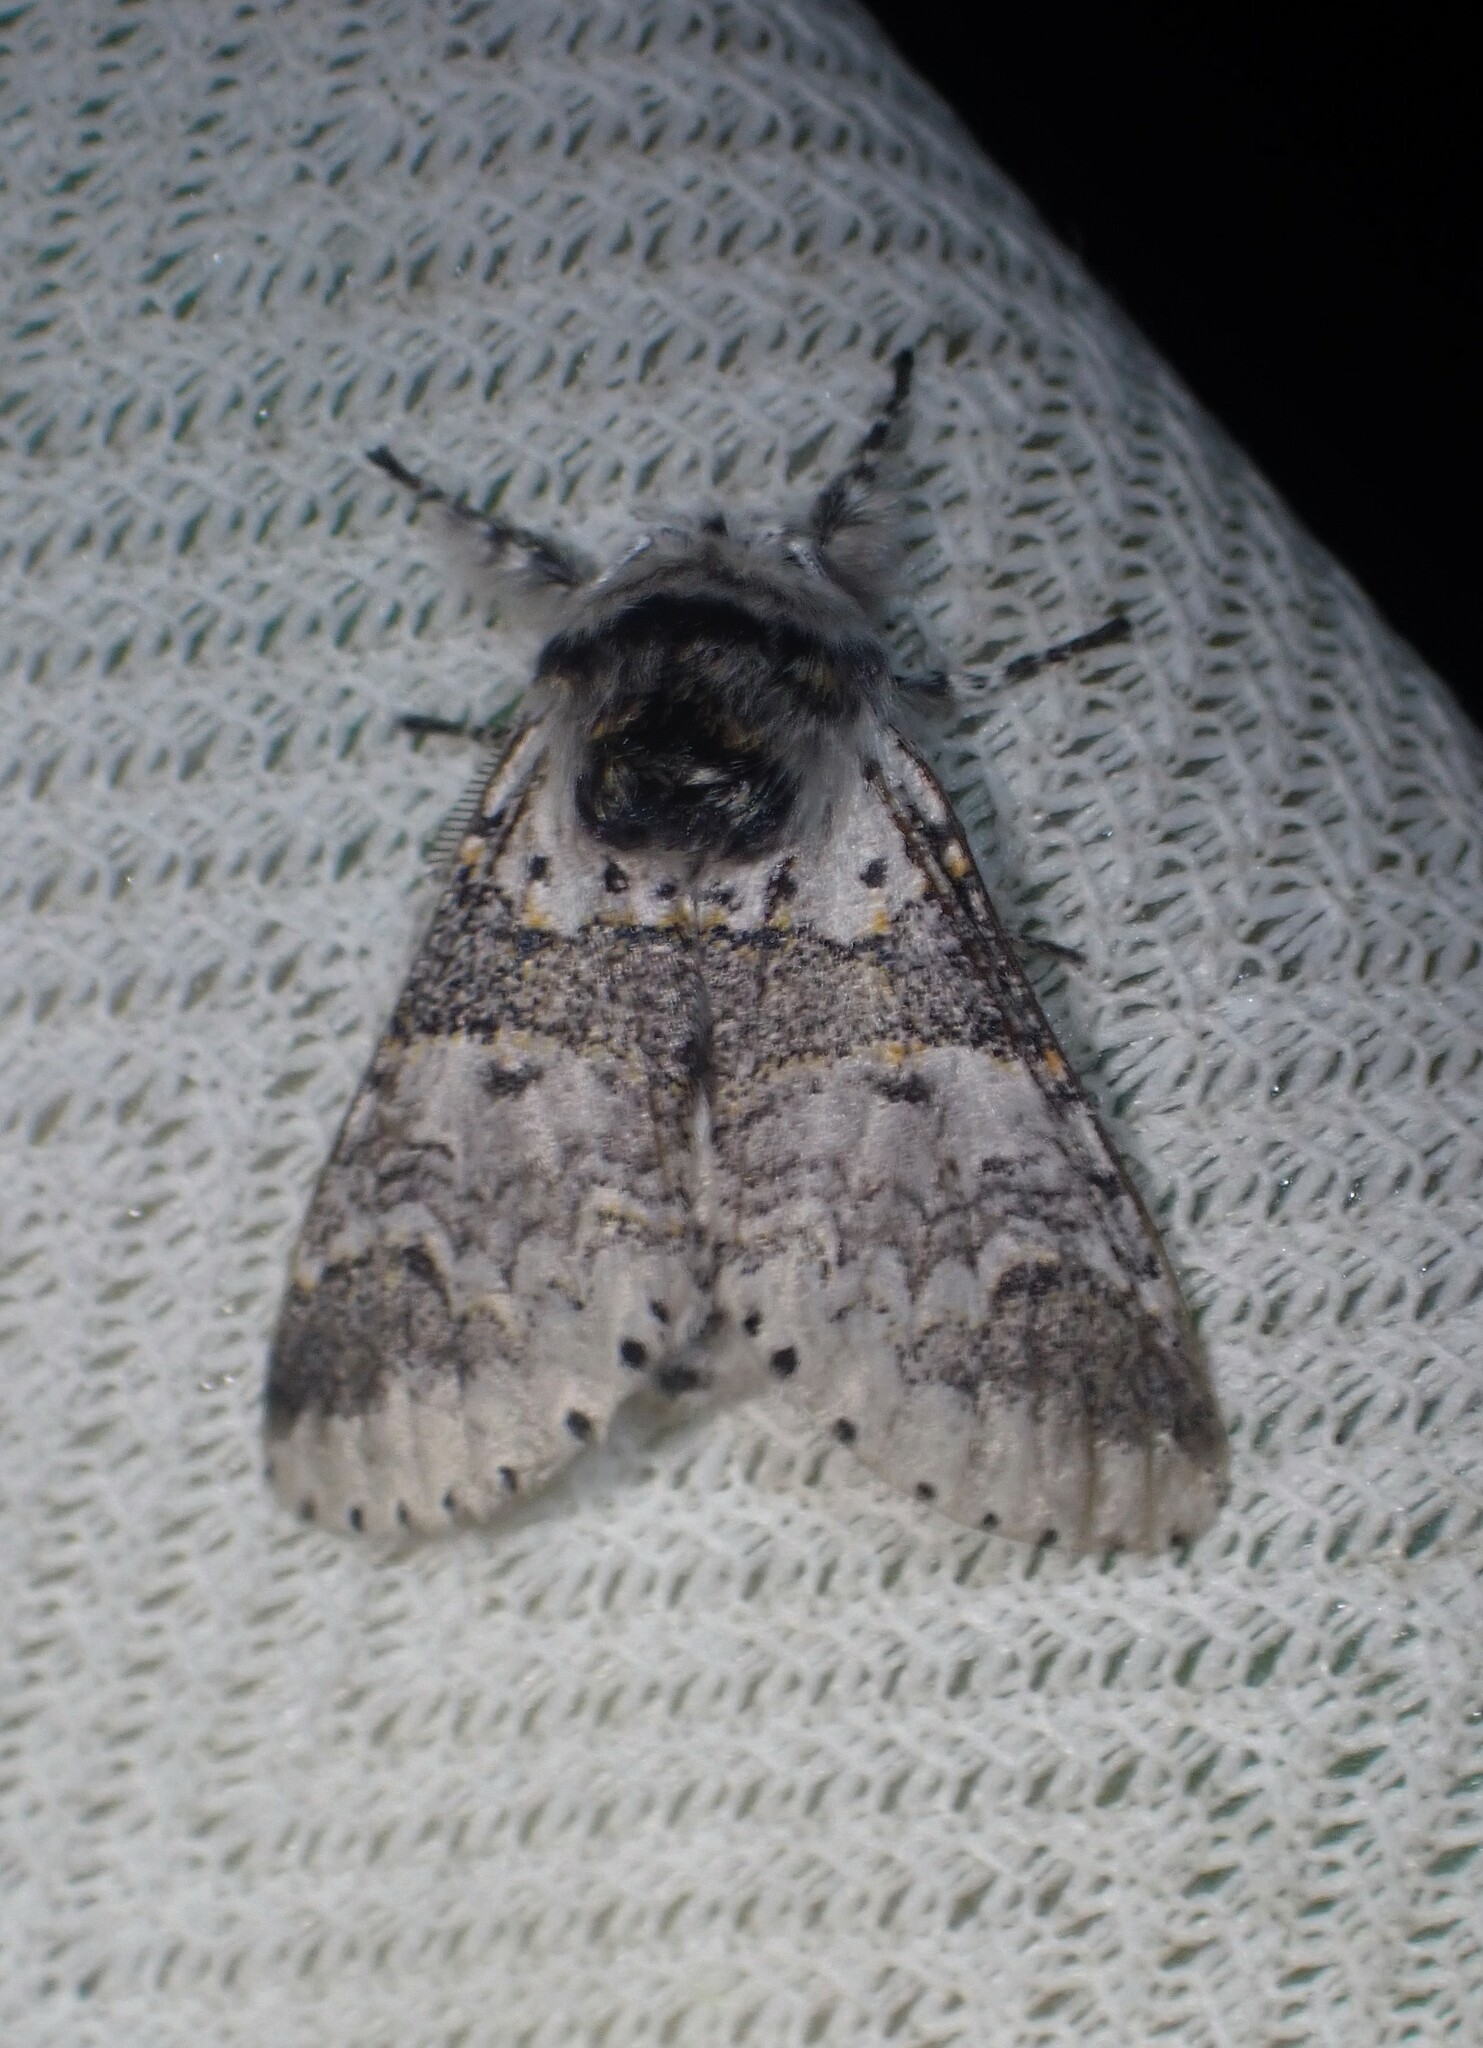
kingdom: Animalia
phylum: Arthropoda
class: Insecta
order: Lepidoptera
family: Notodontidae
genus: Furcula
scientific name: Furcula occidentalis
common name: Western furcula moth
